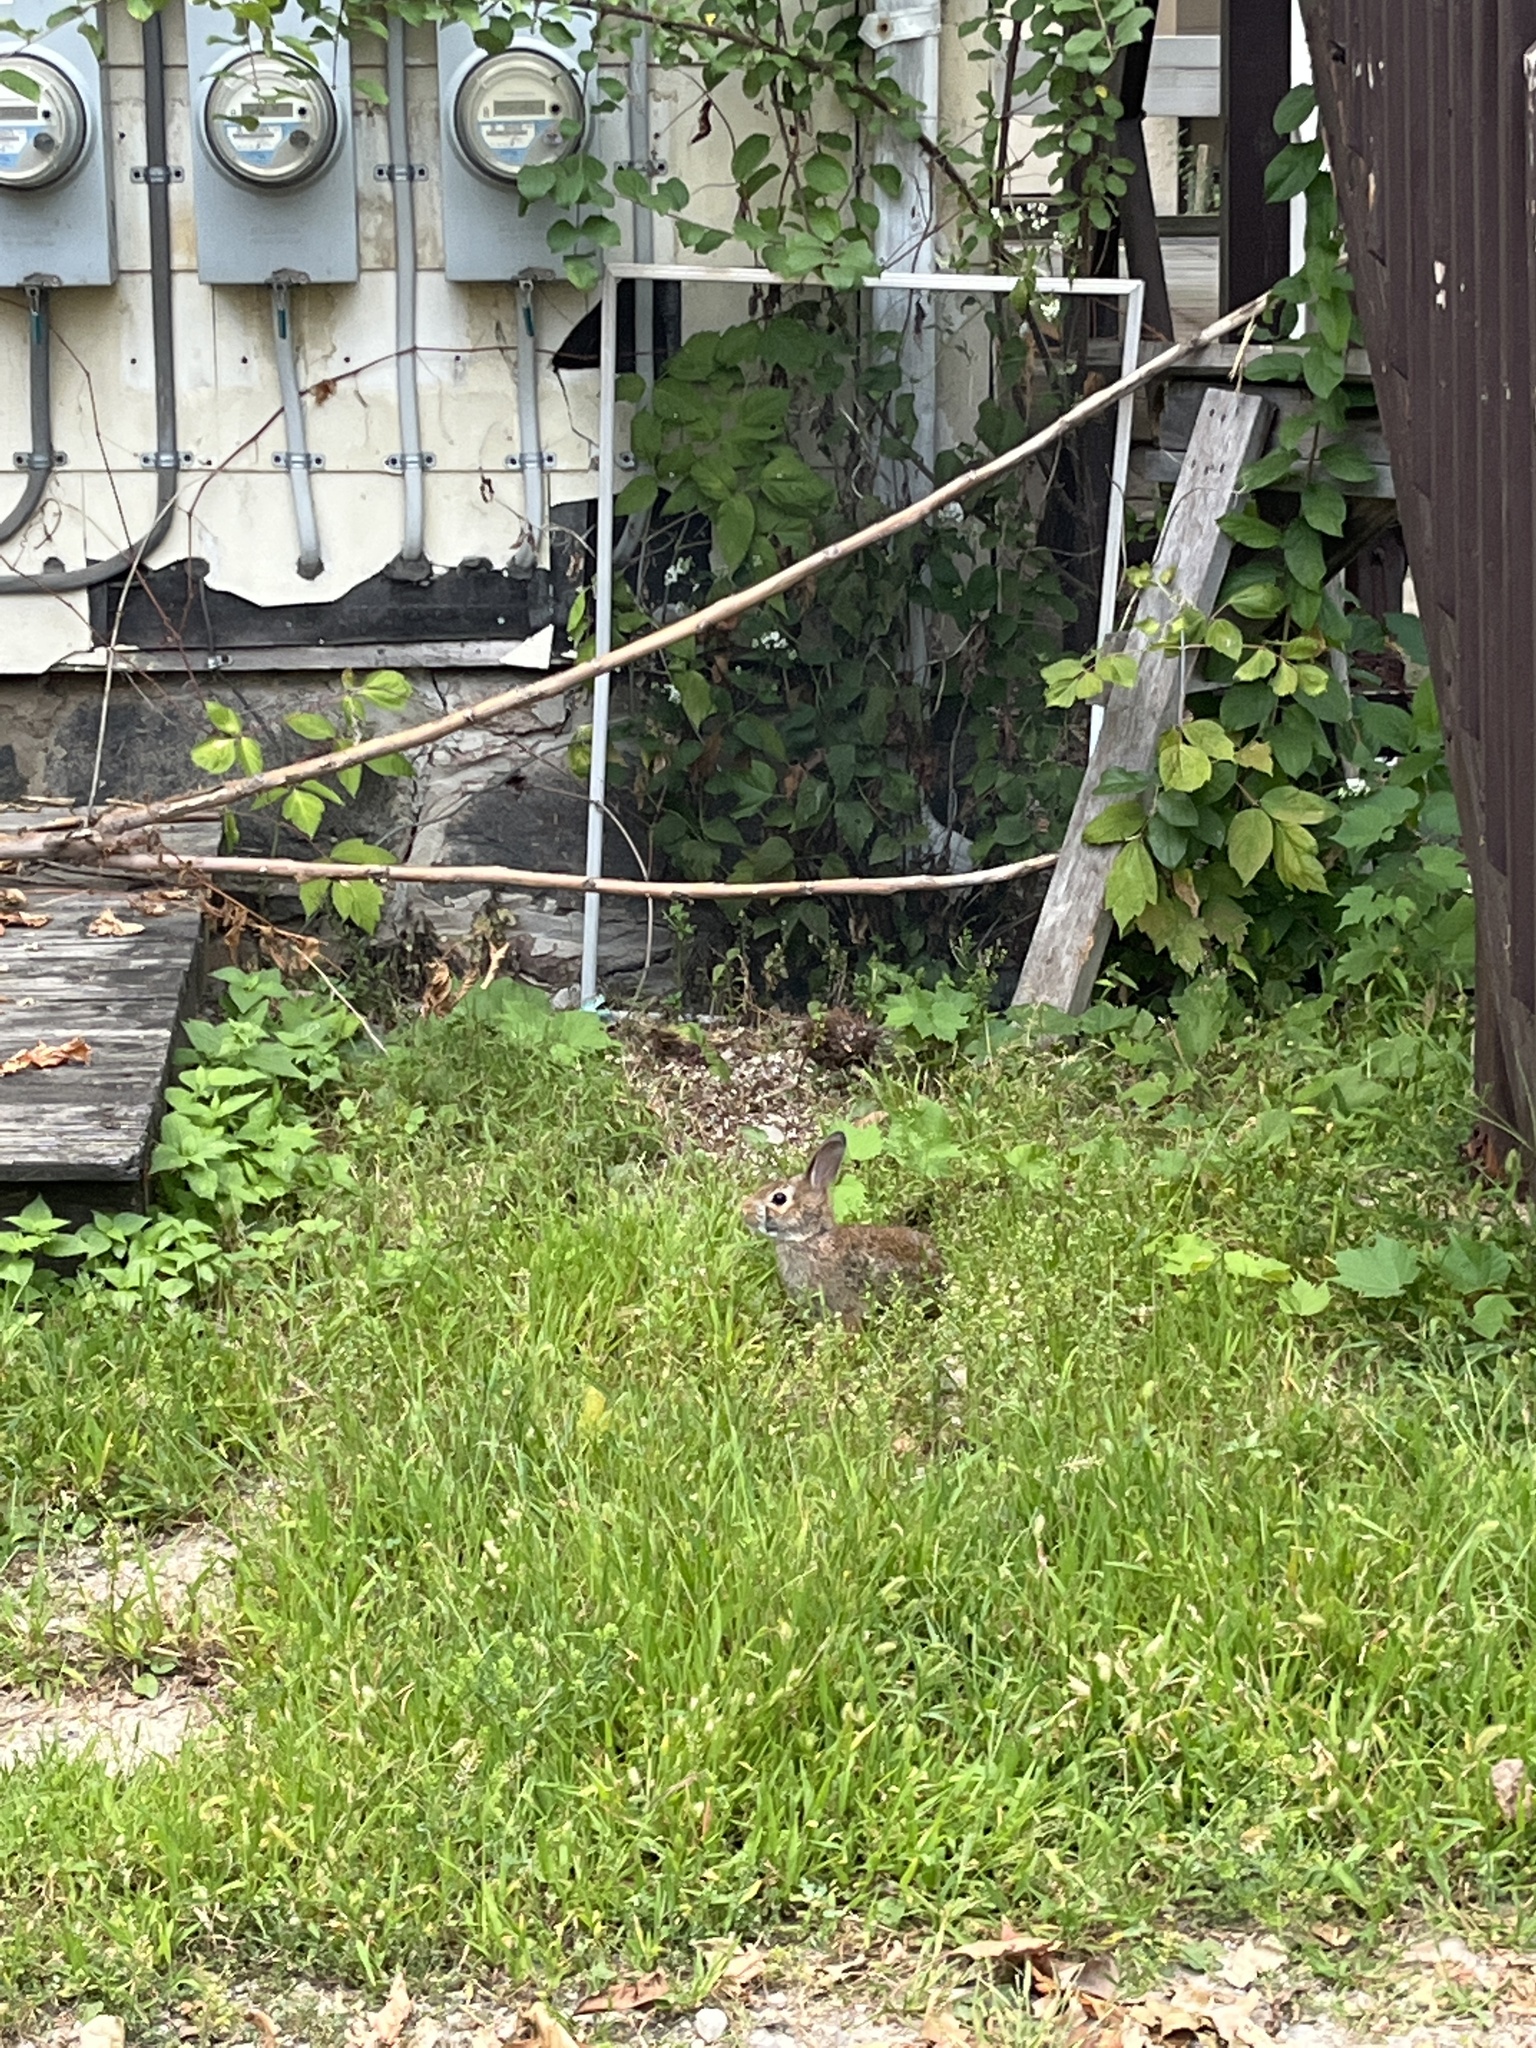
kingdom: Animalia
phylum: Chordata
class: Mammalia
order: Lagomorpha
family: Leporidae
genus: Sylvilagus
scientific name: Sylvilagus floridanus
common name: Eastern cottontail
